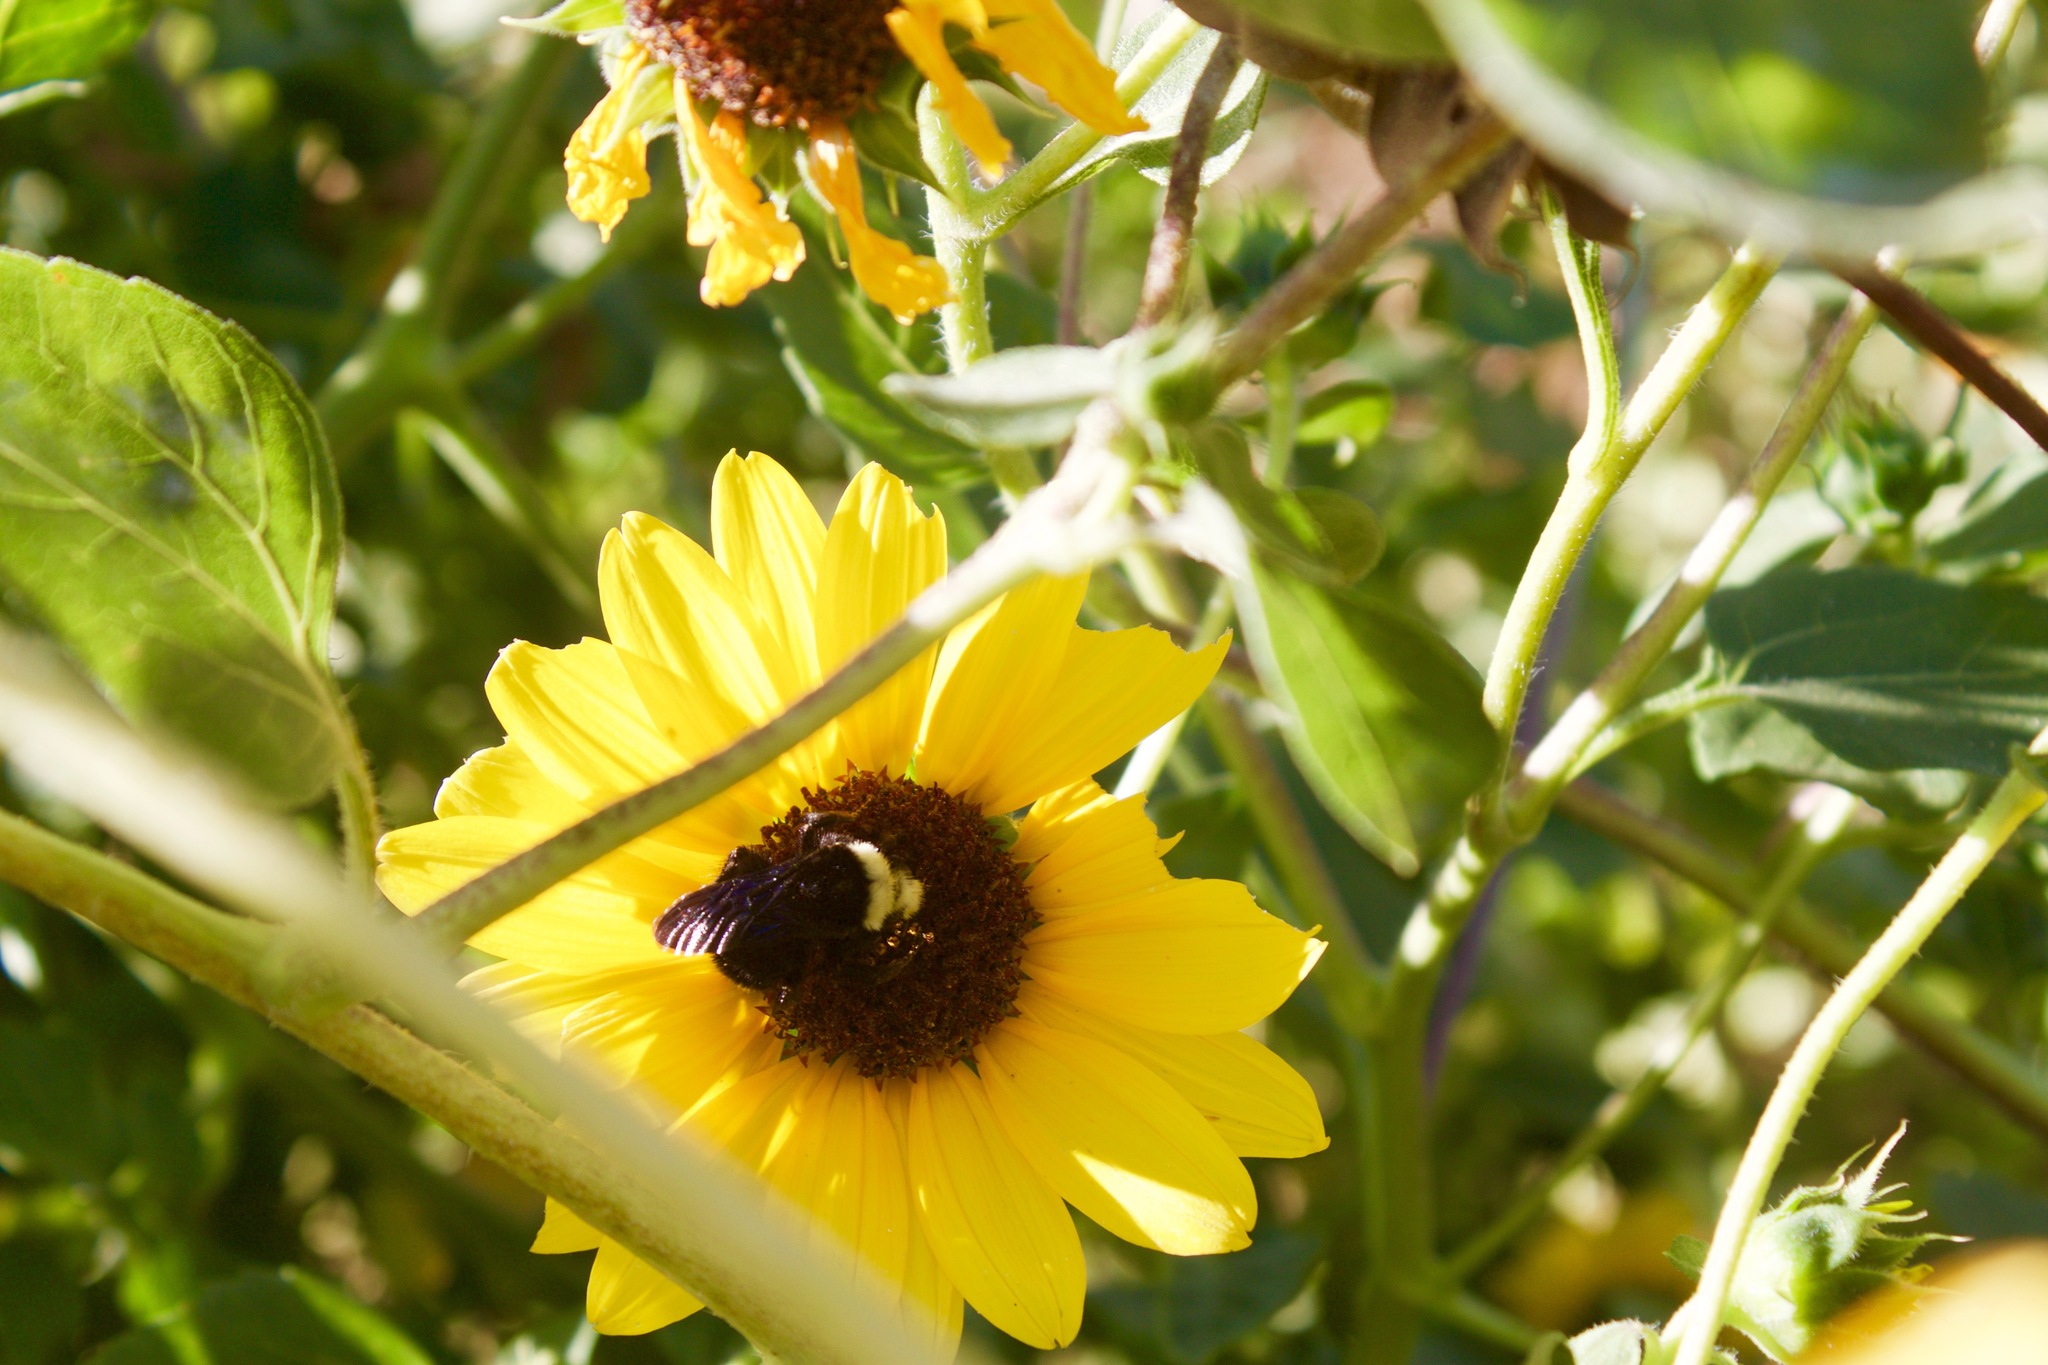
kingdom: Animalia
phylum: Arthropoda
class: Insecta
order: Hymenoptera
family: Apidae
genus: Bombus
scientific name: Bombus vosnesenskii
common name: Vosnesensky bumble bee
